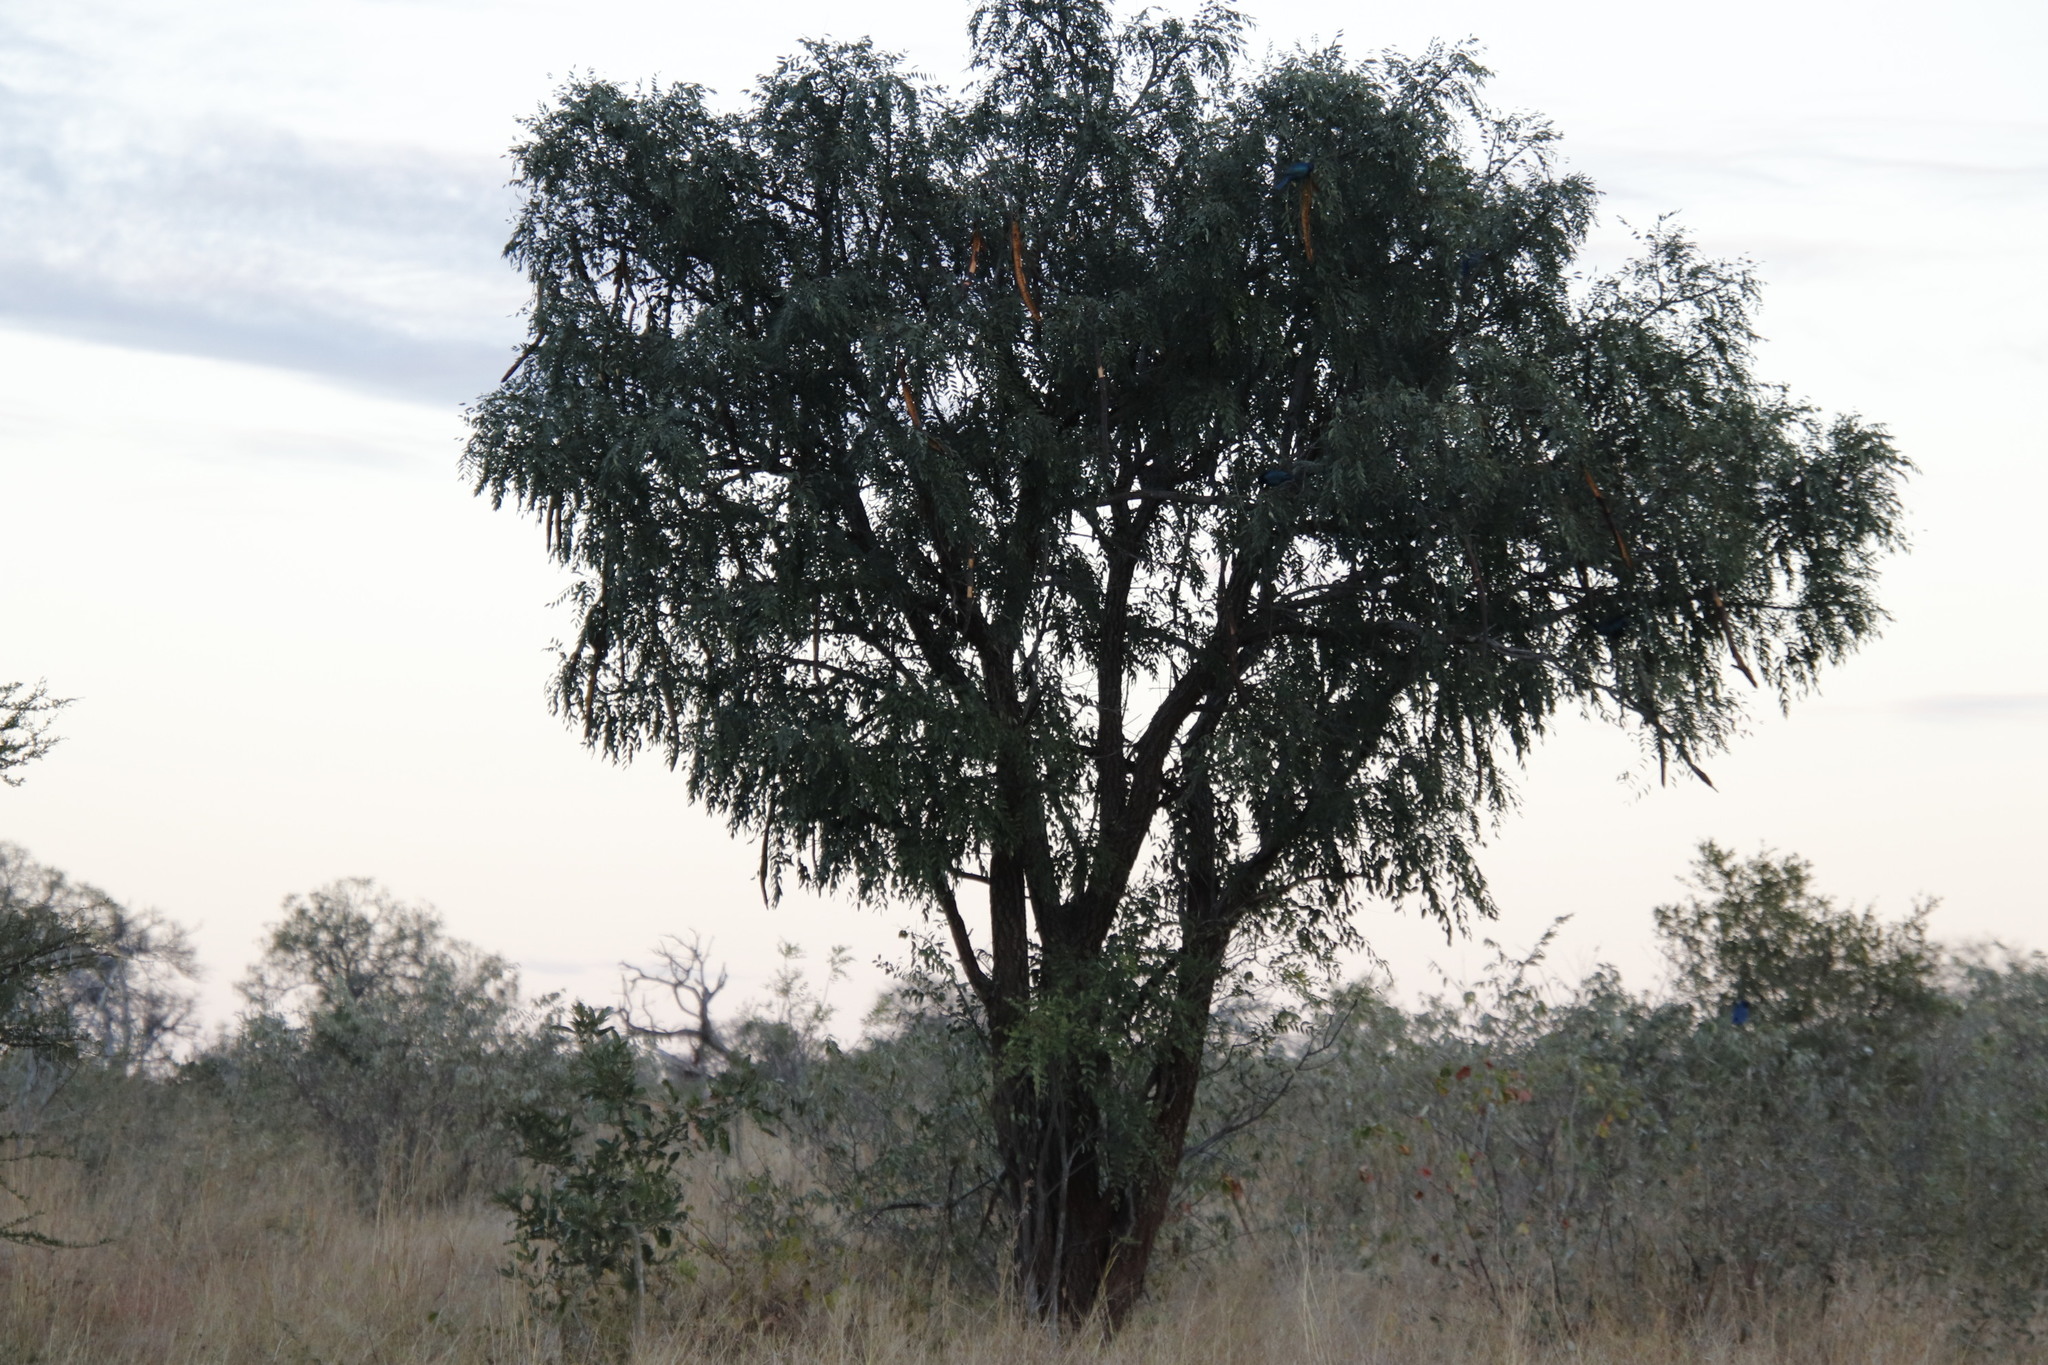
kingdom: Plantae
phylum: Tracheophyta
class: Magnoliopsida
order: Fabales
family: Fabaceae
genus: Cassia
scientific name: Cassia abbreviata
